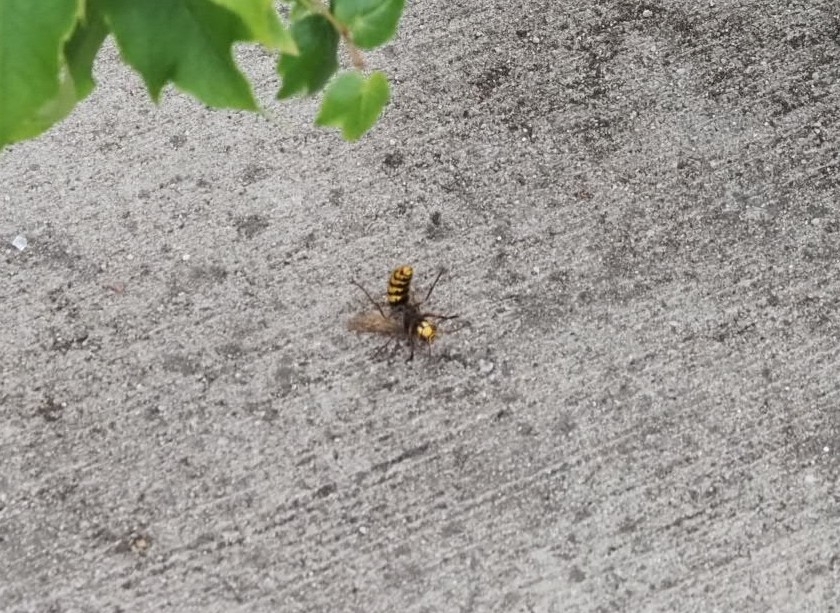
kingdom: Animalia
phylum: Arthropoda
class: Insecta
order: Hymenoptera
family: Vespidae
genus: Vespa
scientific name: Vespa crabro
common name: Hornet
